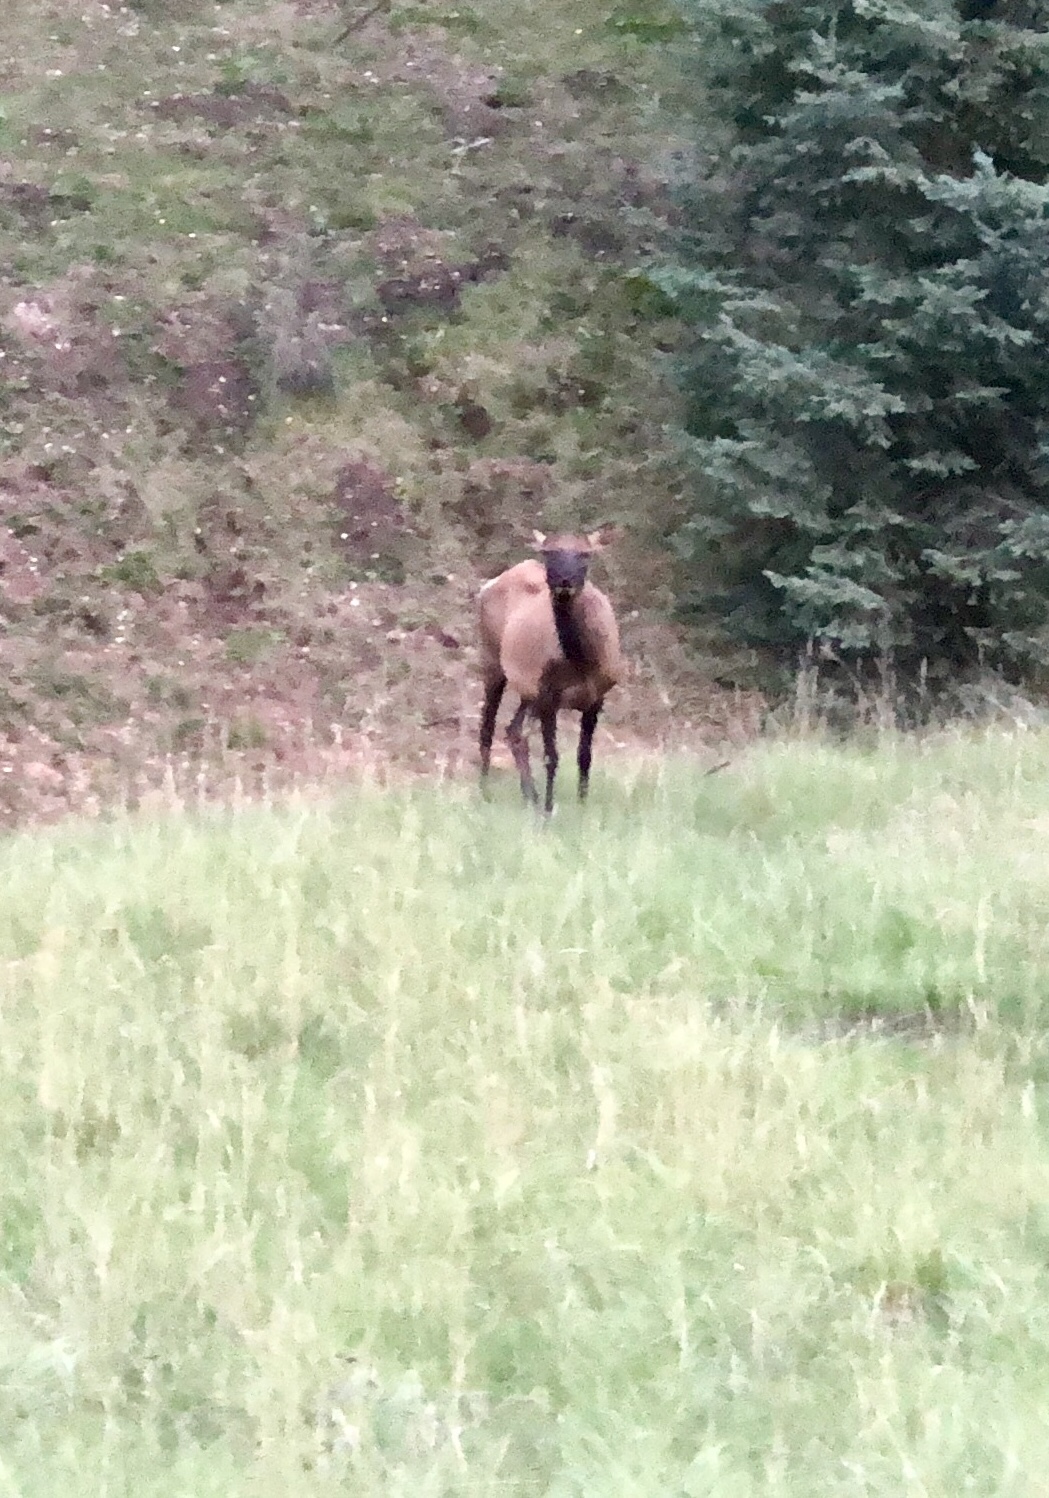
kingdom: Animalia
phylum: Chordata
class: Mammalia
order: Artiodactyla
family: Cervidae
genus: Cervus
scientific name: Cervus elaphus
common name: Red deer
